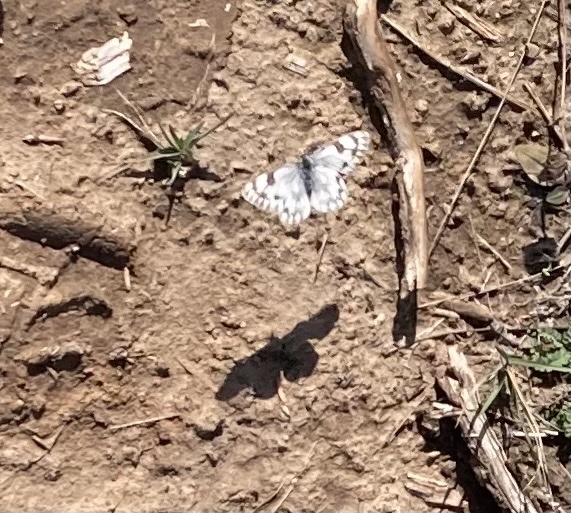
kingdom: Animalia
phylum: Arthropoda
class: Insecta
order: Lepidoptera
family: Pieridae
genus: Pontia
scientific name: Pontia occidentalis
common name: Western white
